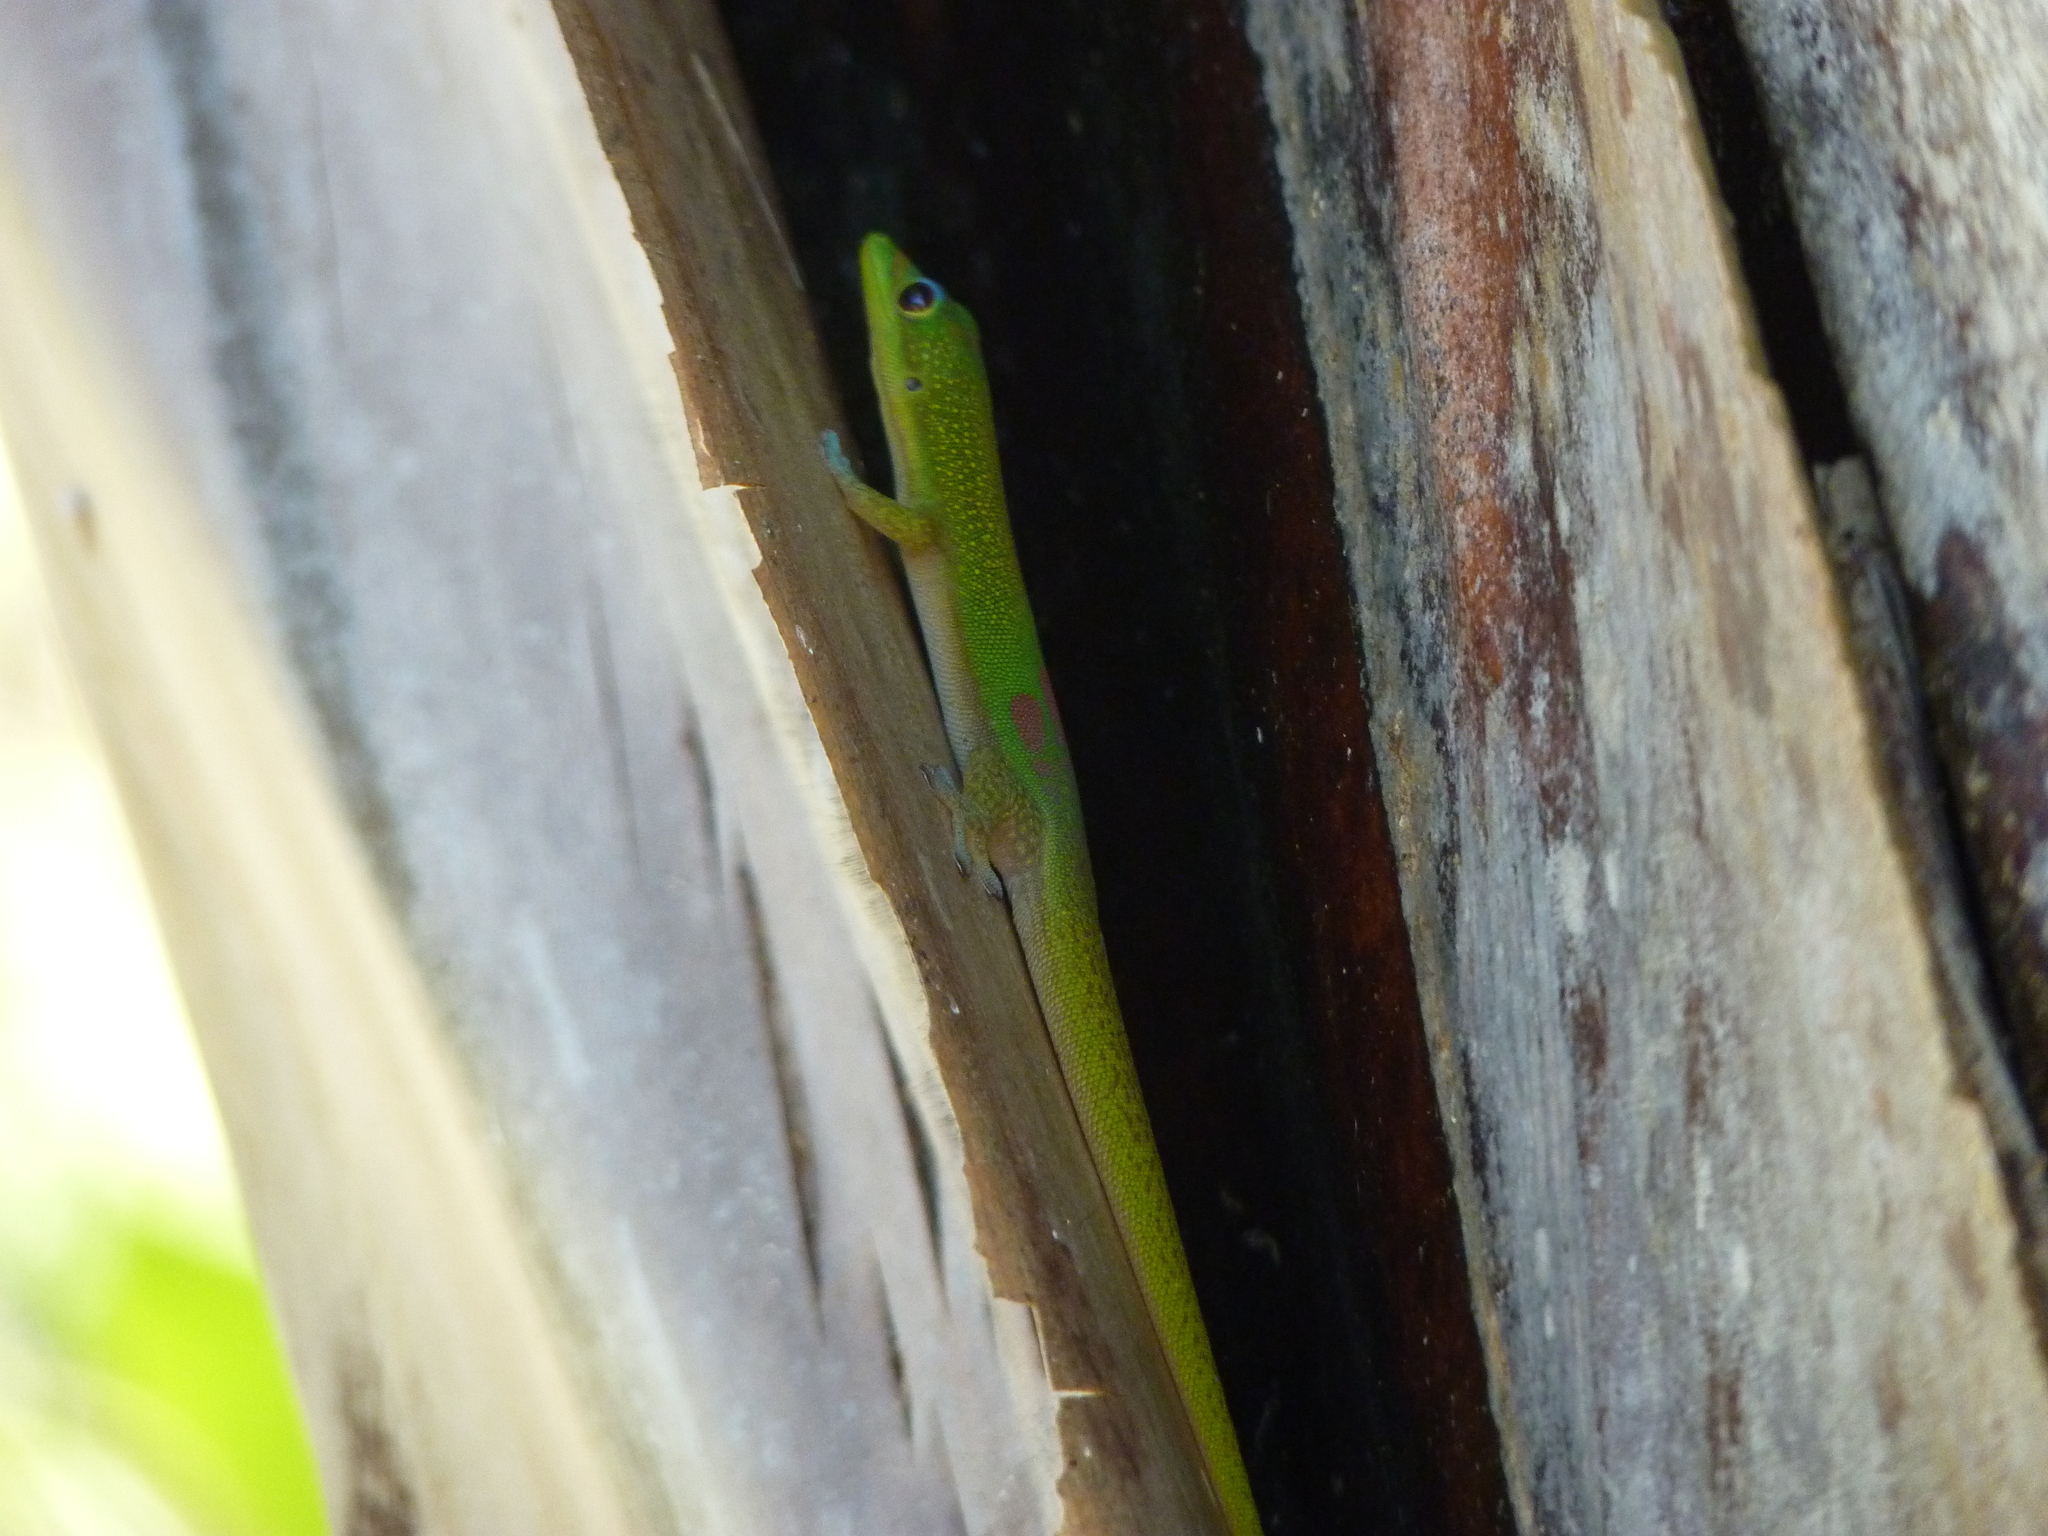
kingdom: Animalia
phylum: Chordata
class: Squamata
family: Gekkonidae
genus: Phelsuma
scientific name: Phelsuma laticauda
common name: Gold dust day gecko
